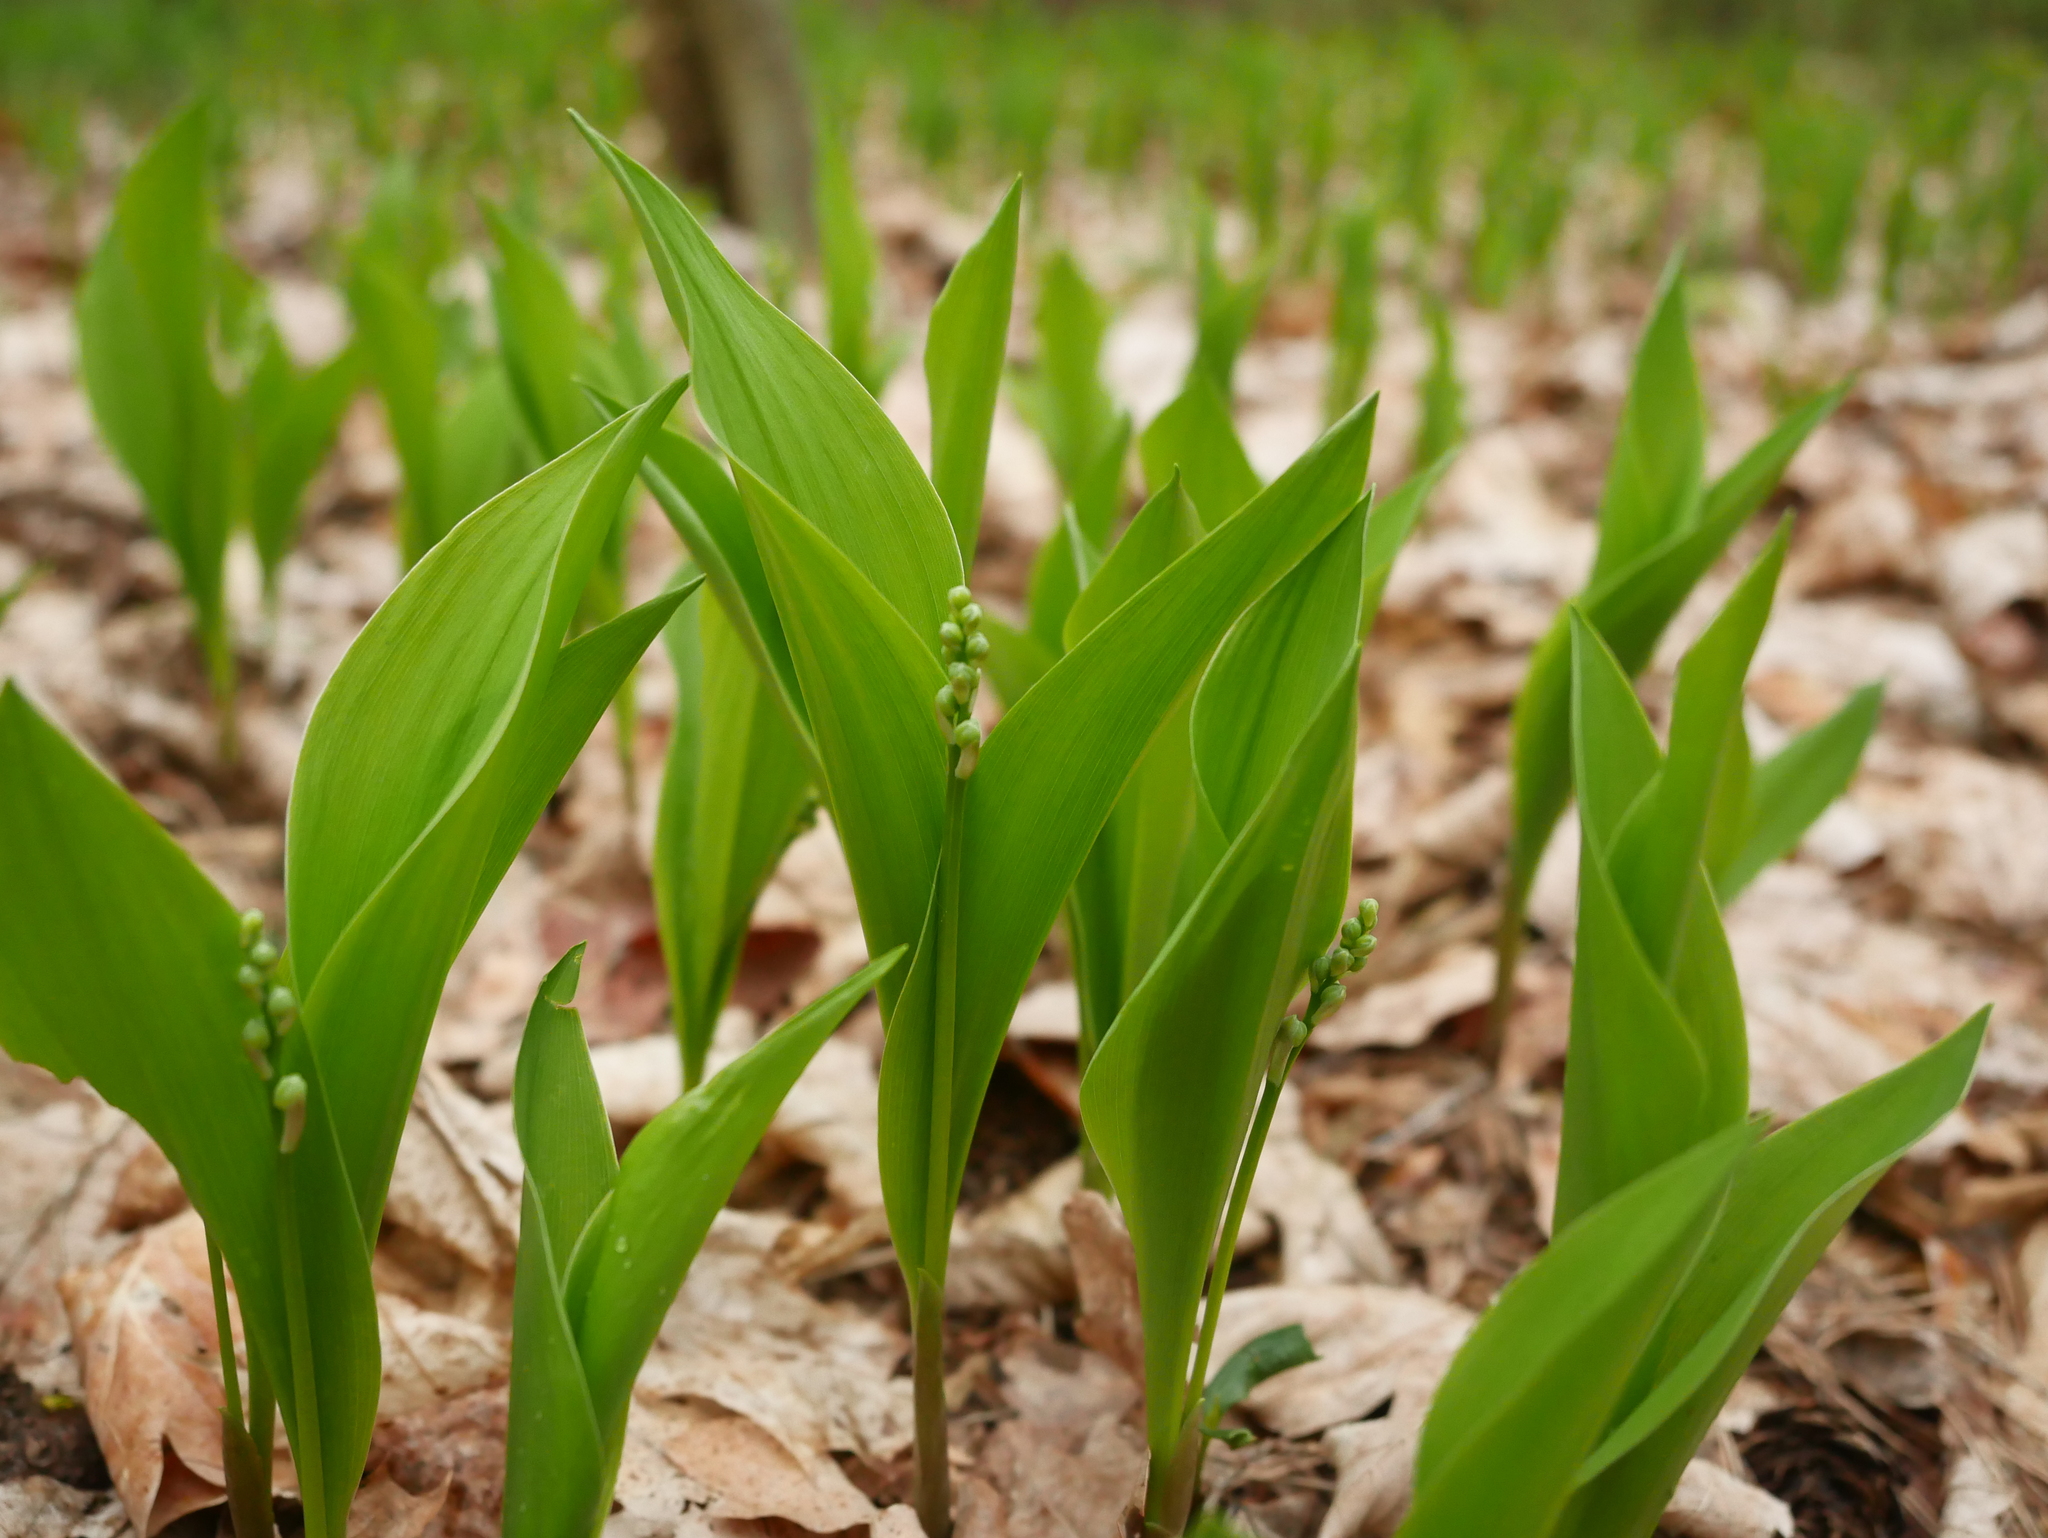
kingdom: Plantae
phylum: Tracheophyta
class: Liliopsida
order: Asparagales
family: Asparagaceae
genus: Convallaria
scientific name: Convallaria majalis
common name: Lily-of-the-valley
